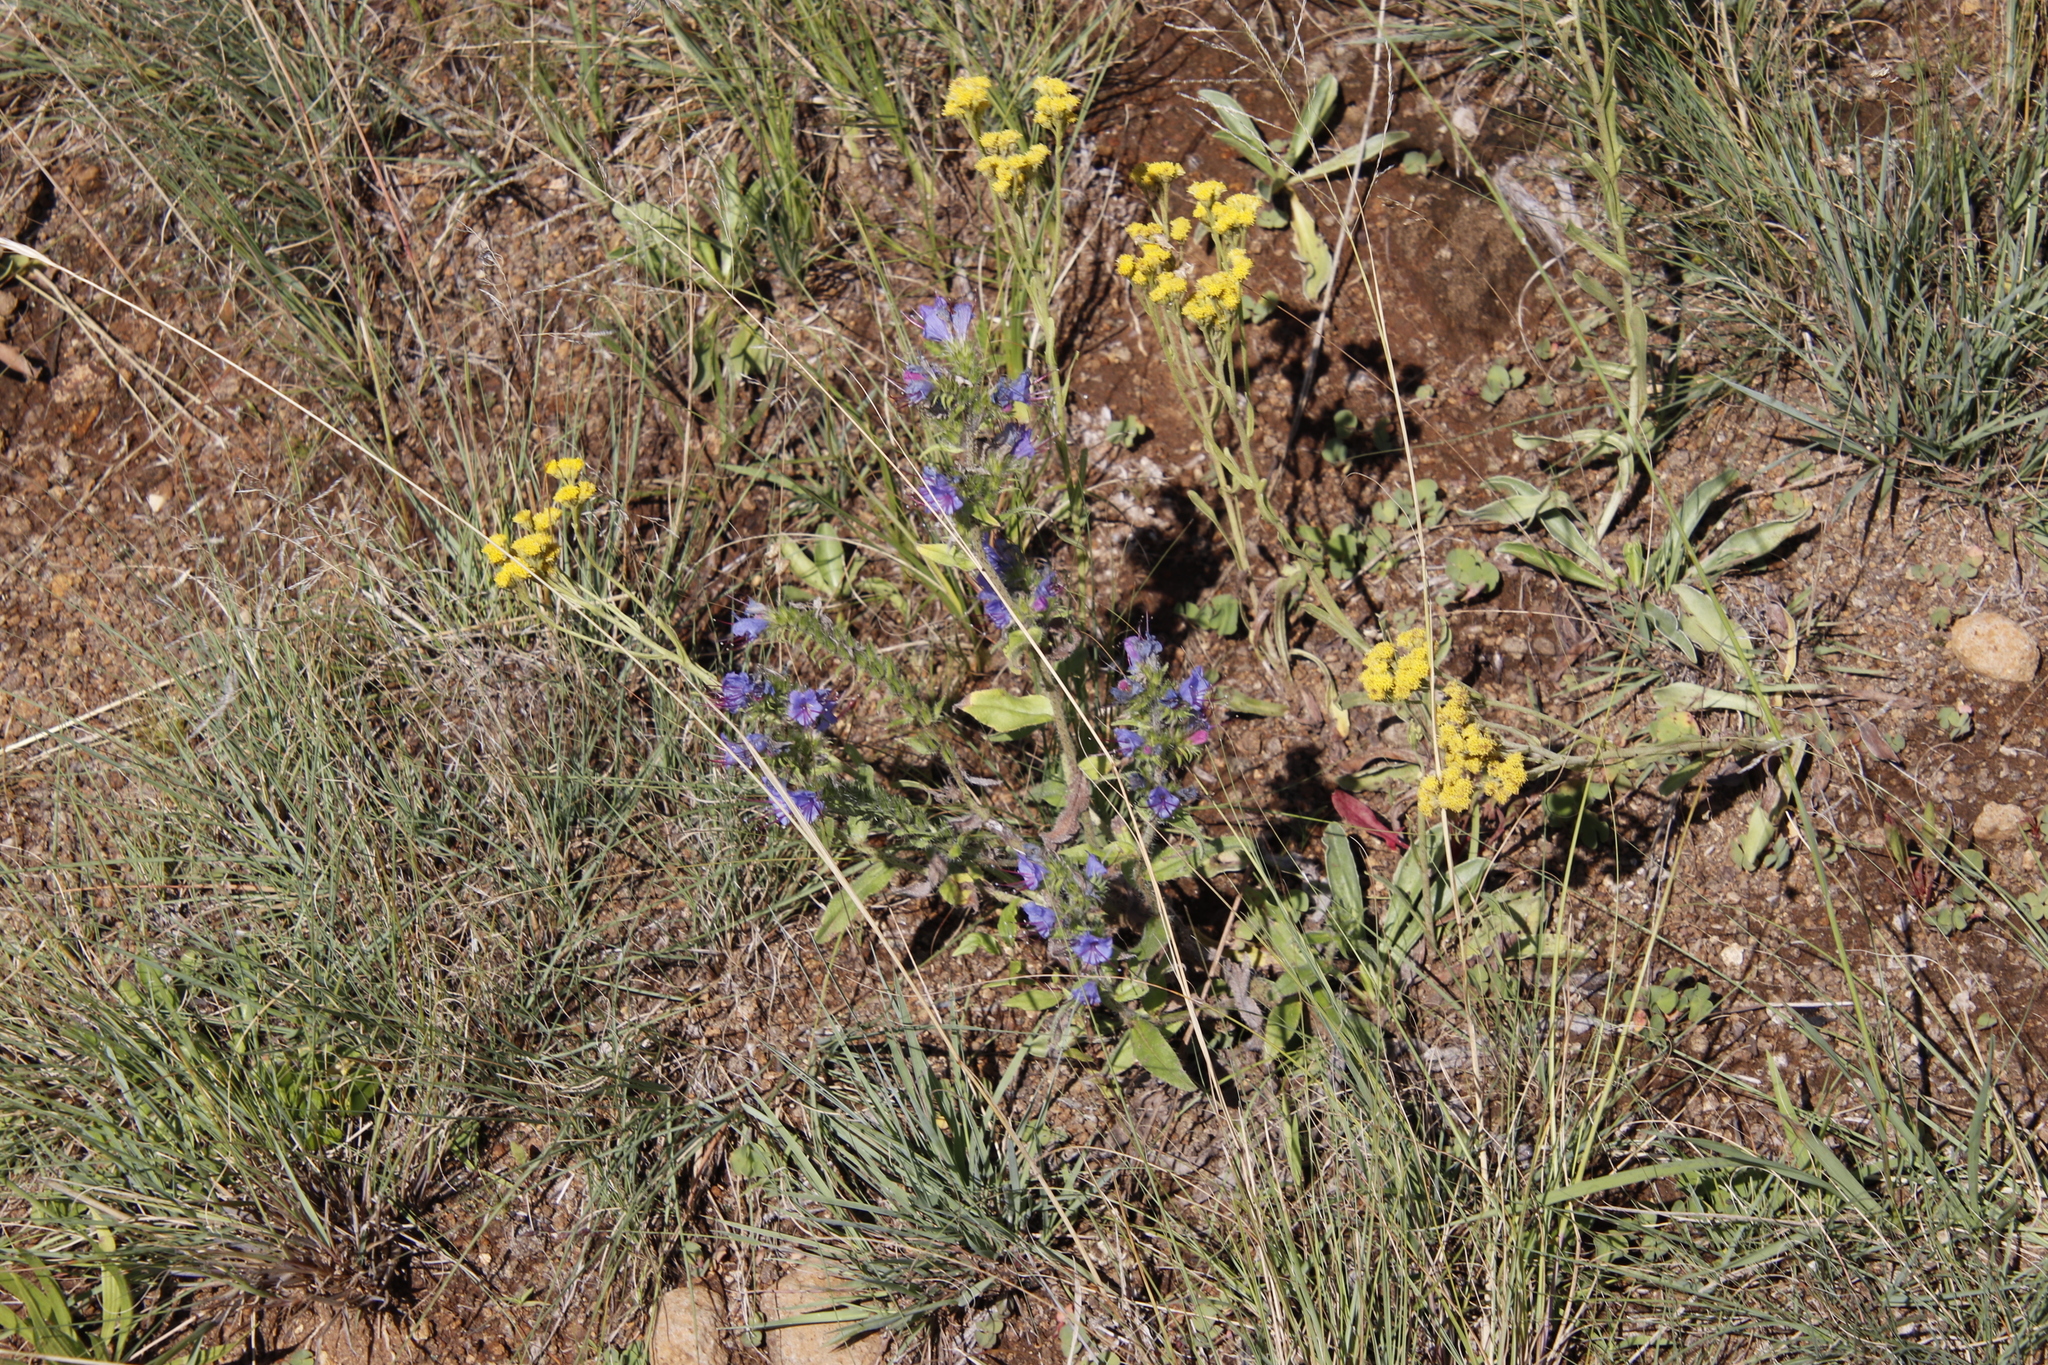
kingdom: Plantae
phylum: Tracheophyta
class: Magnoliopsida
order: Boraginales
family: Boraginaceae
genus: Echium
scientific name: Echium vulgare
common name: Common viper's bugloss
